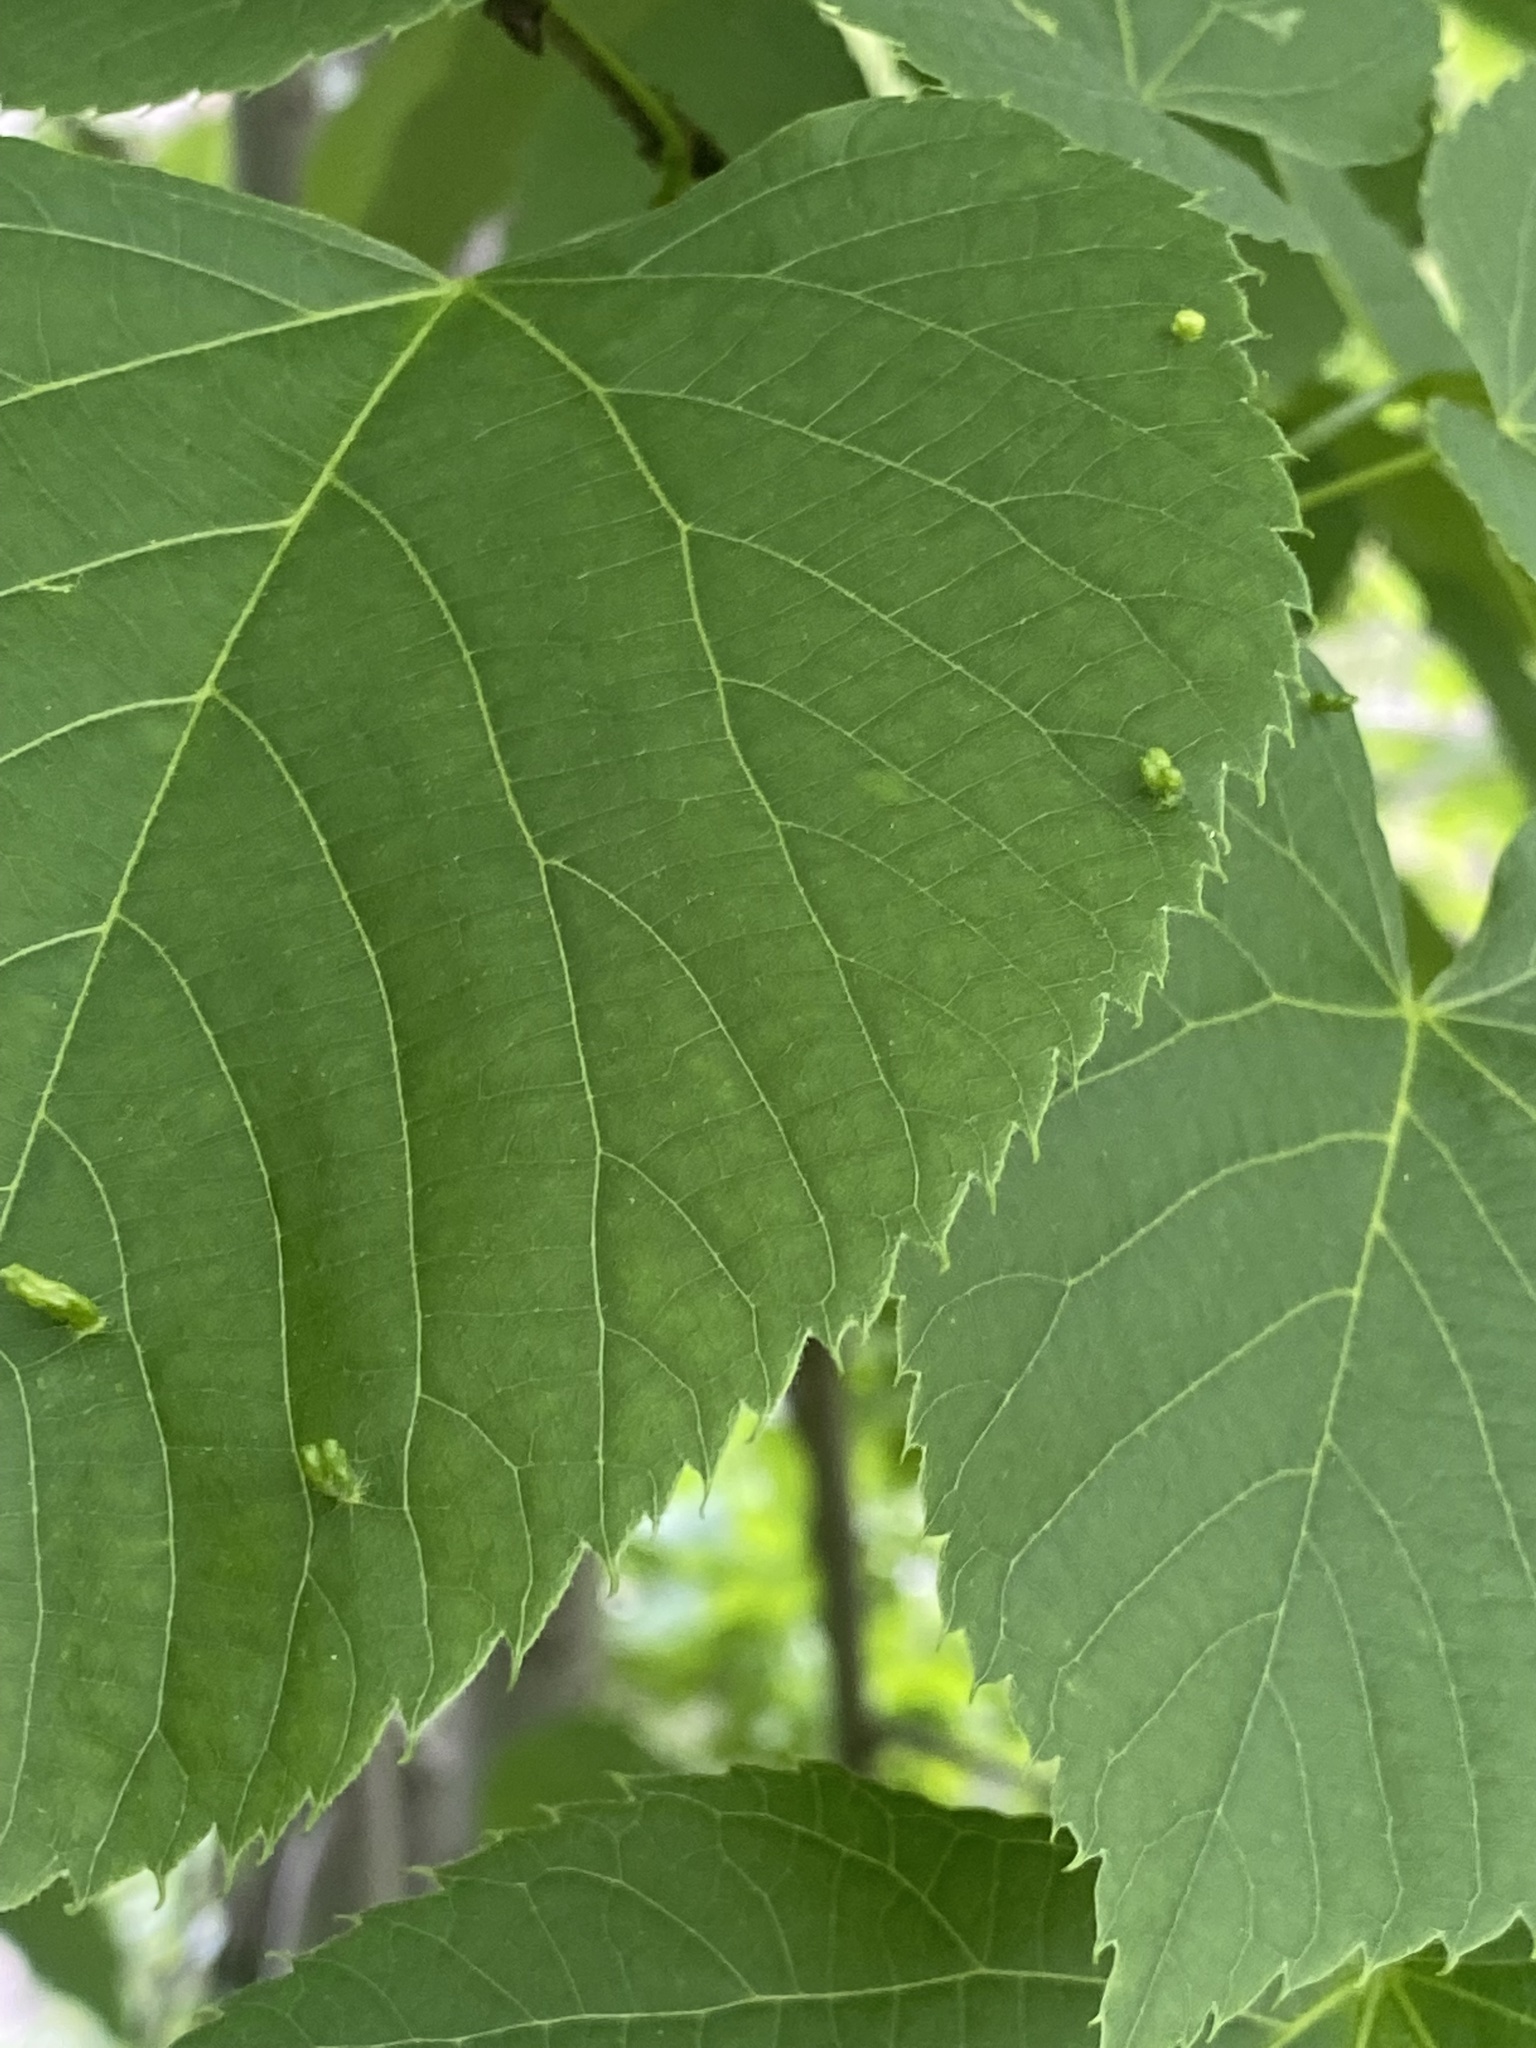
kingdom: Animalia
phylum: Arthropoda
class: Arachnida
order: Trombidiformes
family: Eriophyidae
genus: Eriophyes
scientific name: Eriophyes tiliae
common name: Red nail gall mite
